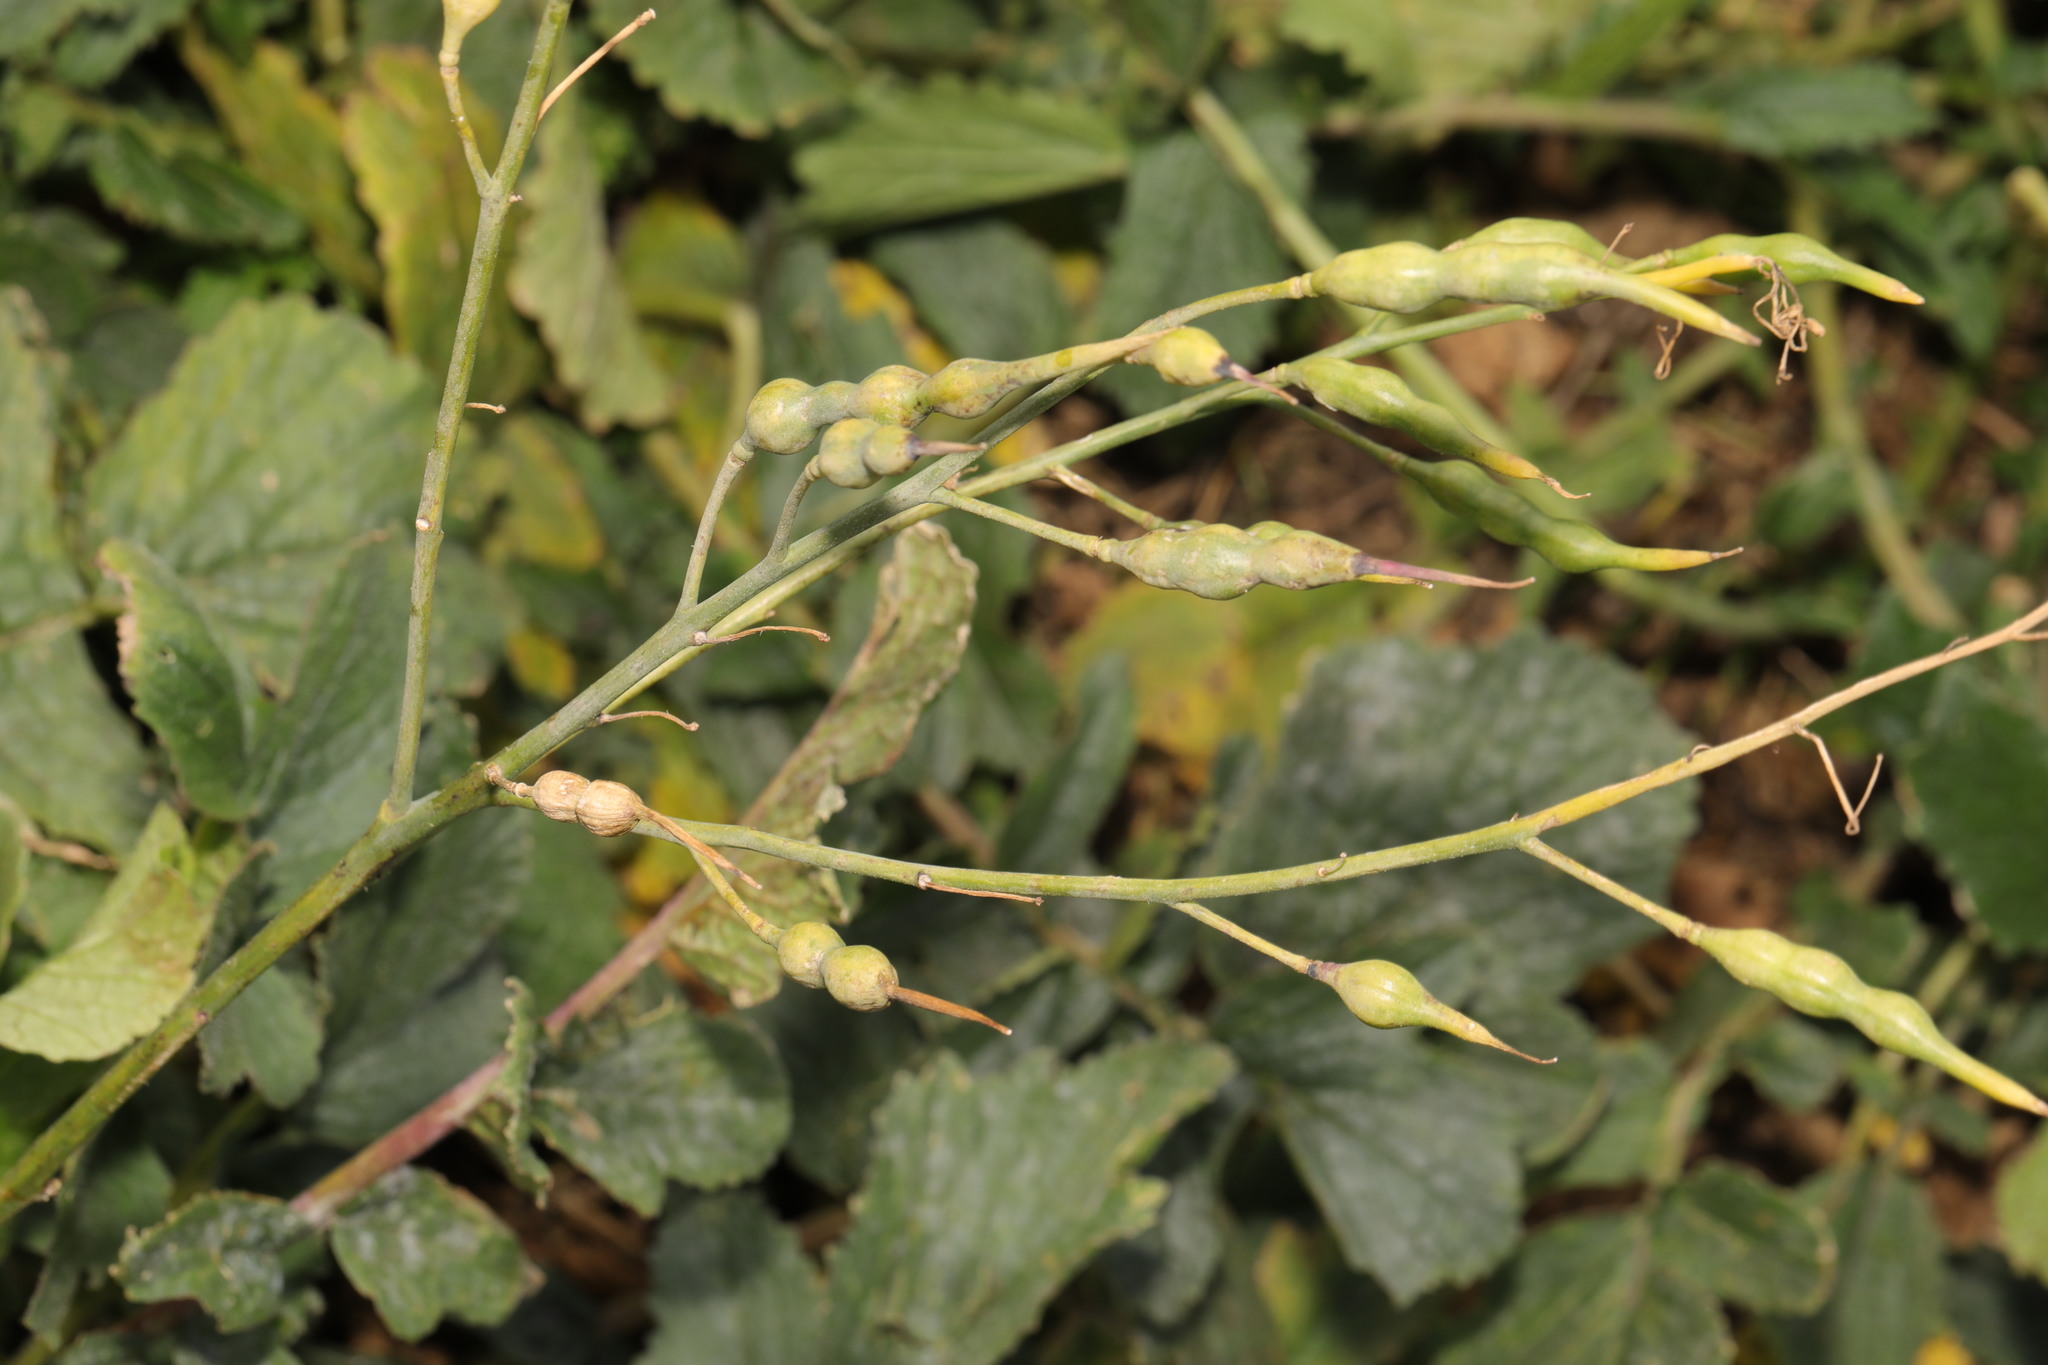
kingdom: Plantae
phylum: Tracheophyta
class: Magnoliopsida
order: Brassicales
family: Brassicaceae
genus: Raphanus
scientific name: Raphanus raphanistrum
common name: Wild radish
